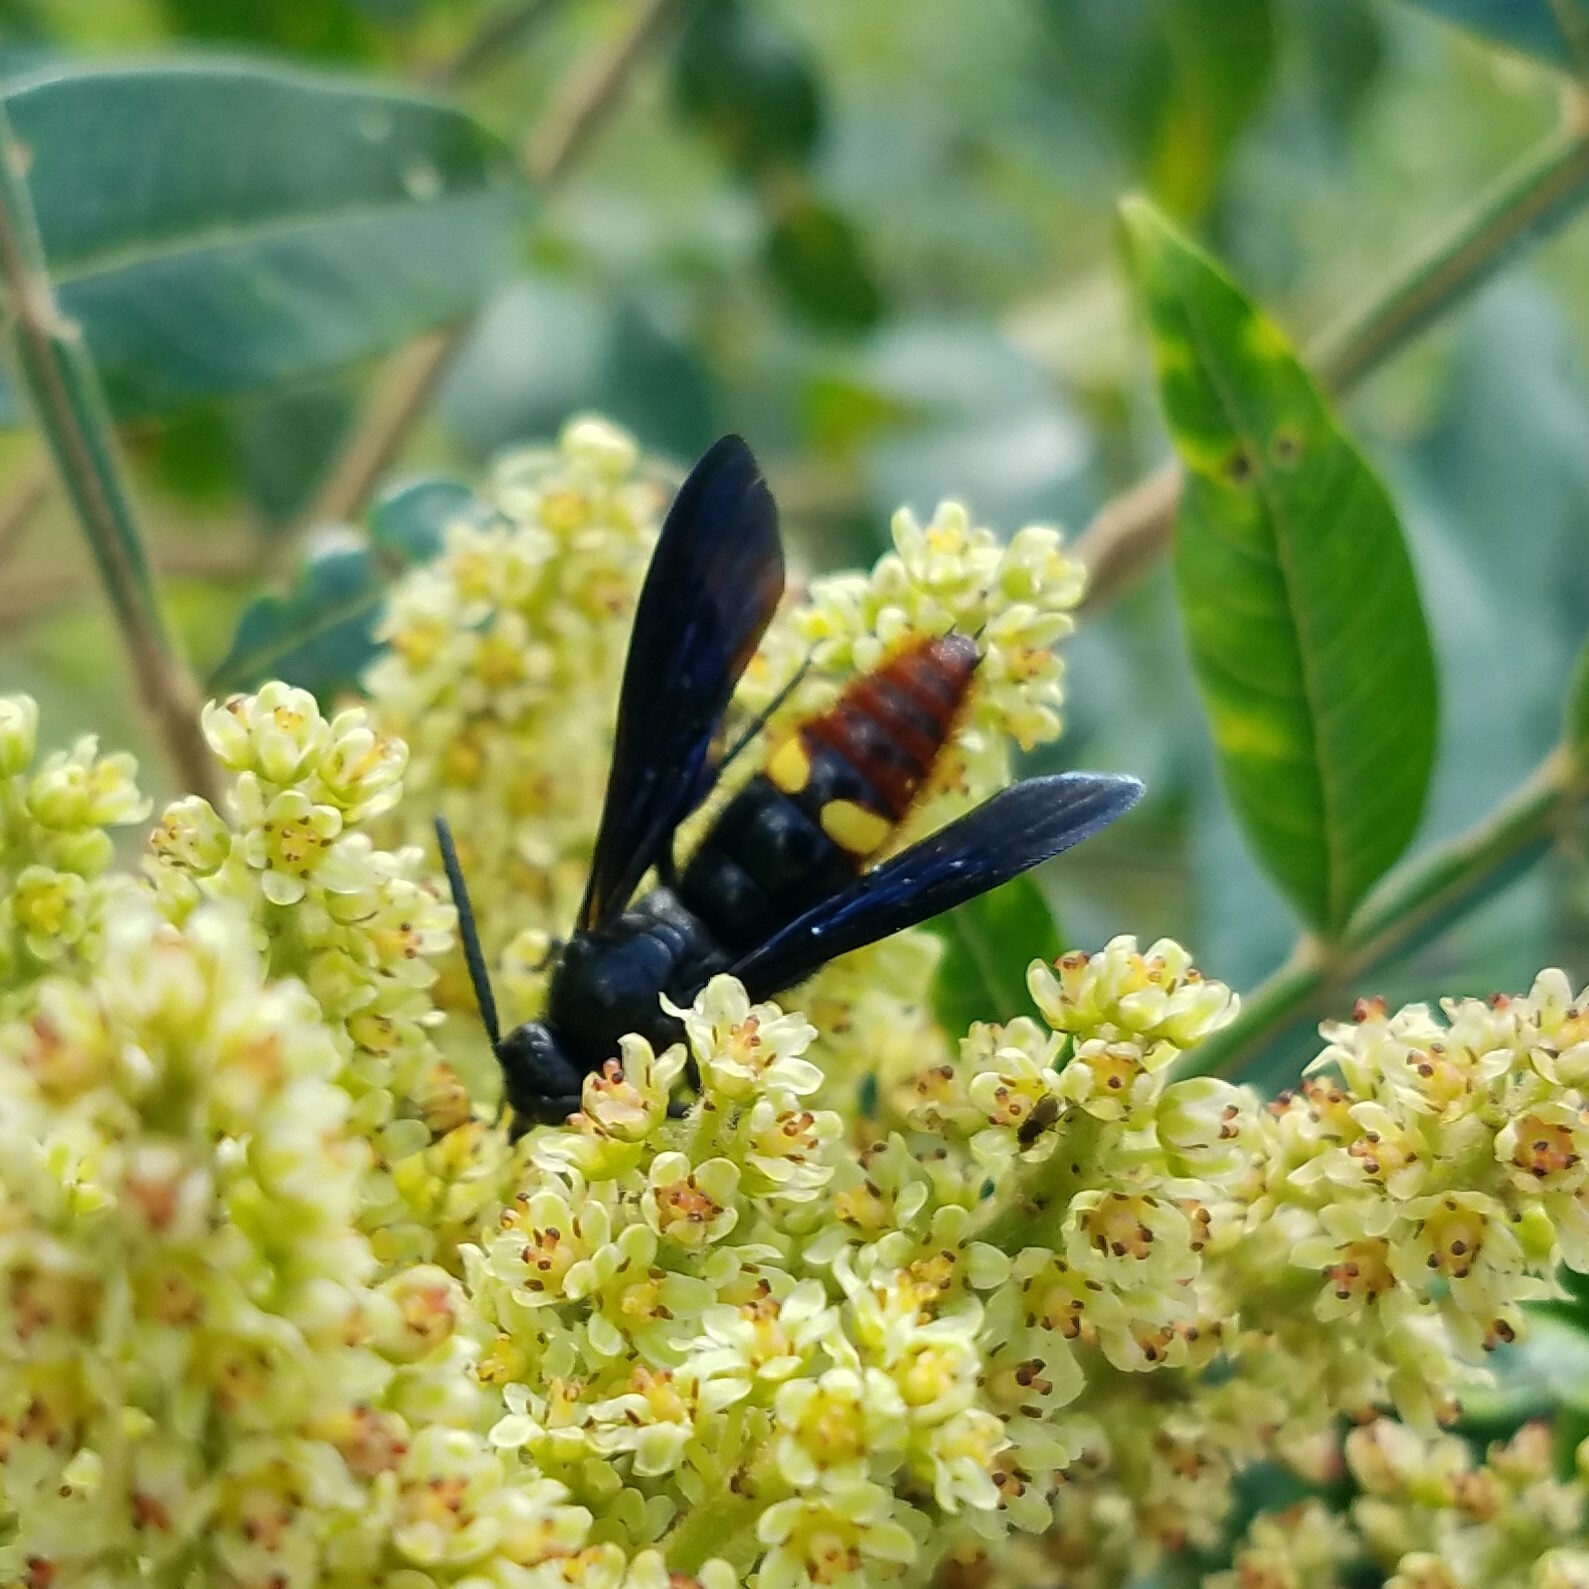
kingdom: Animalia
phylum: Arthropoda
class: Insecta
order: Hymenoptera
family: Scoliidae
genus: Scolia
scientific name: Scolia dubia
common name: Blue-winged scoliid wasp
